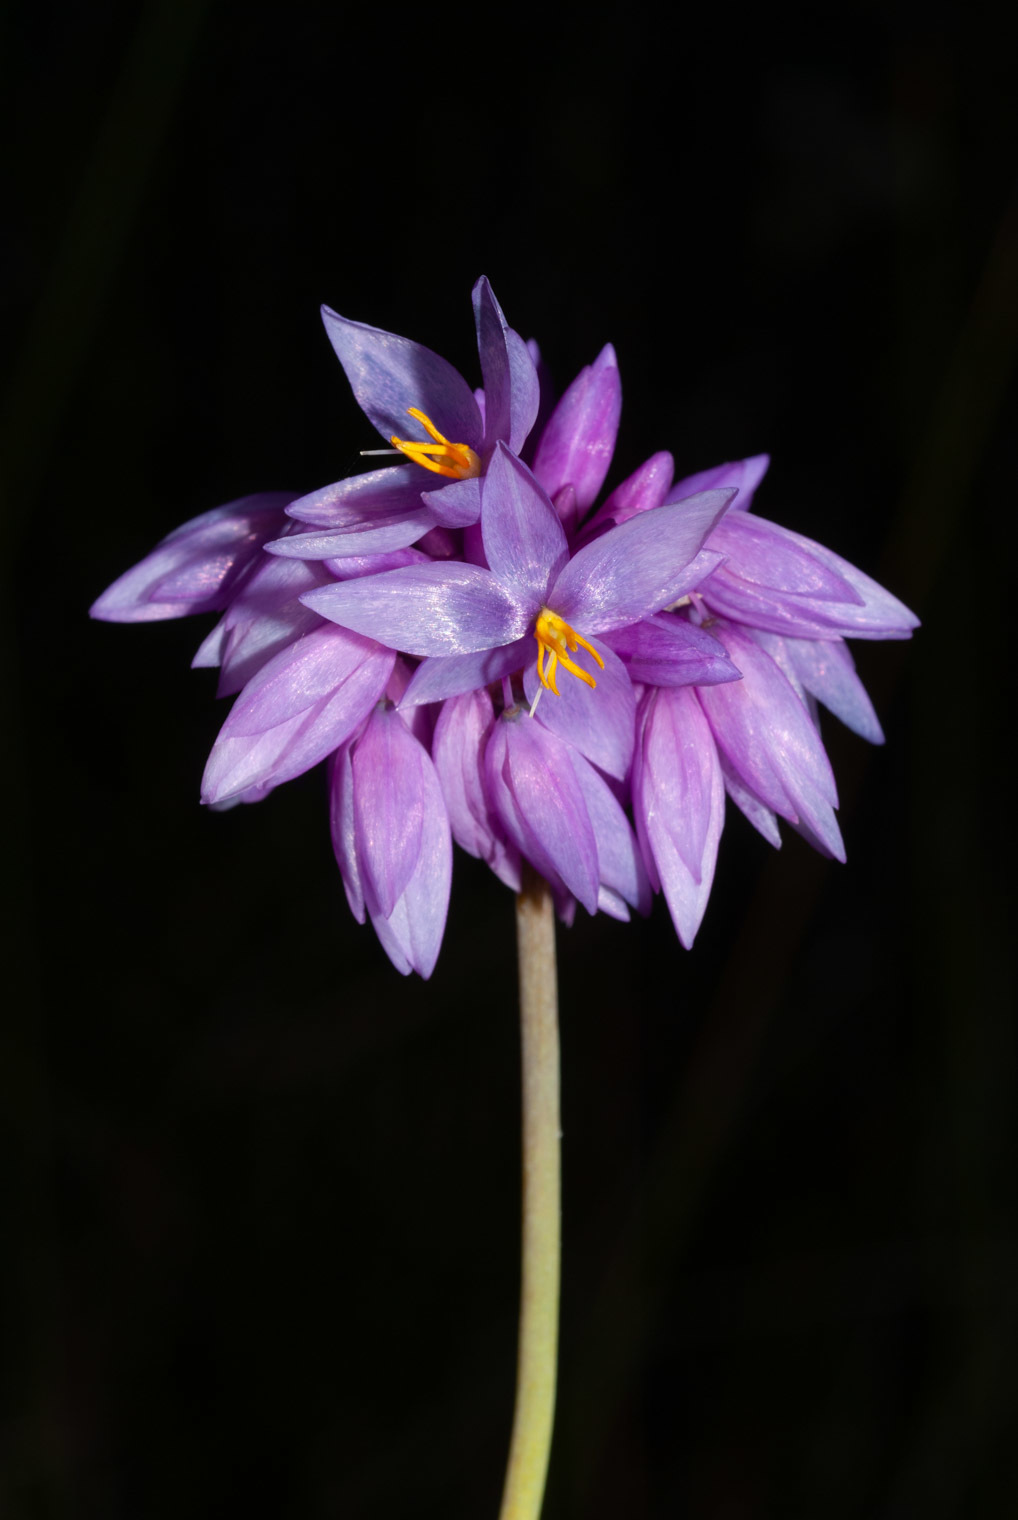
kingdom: Plantae
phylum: Tracheophyta
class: Liliopsida
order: Asparagales
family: Asparagaceae
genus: Sowerbaea
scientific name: Sowerbaea juncea
